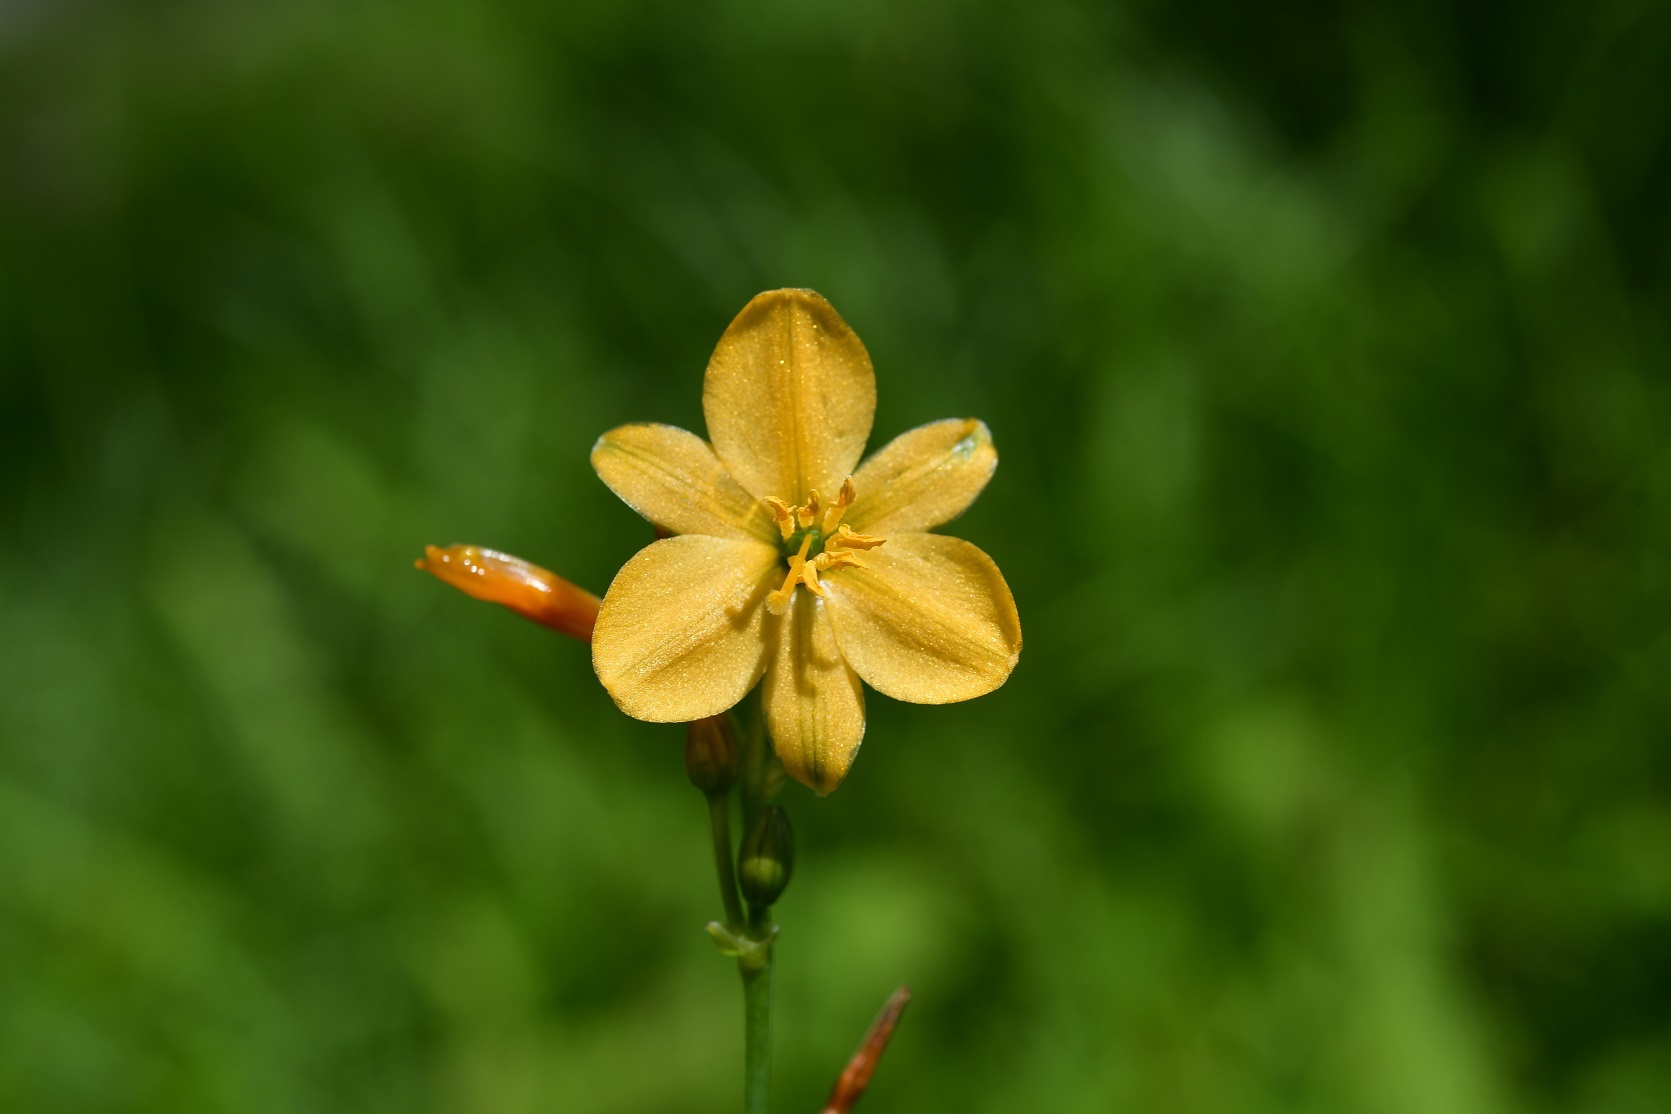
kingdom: Plantae
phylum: Tracheophyta
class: Liliopsida
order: Asparagales
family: Asparagaceae
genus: Echeandia
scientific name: Echeandia skinneri
